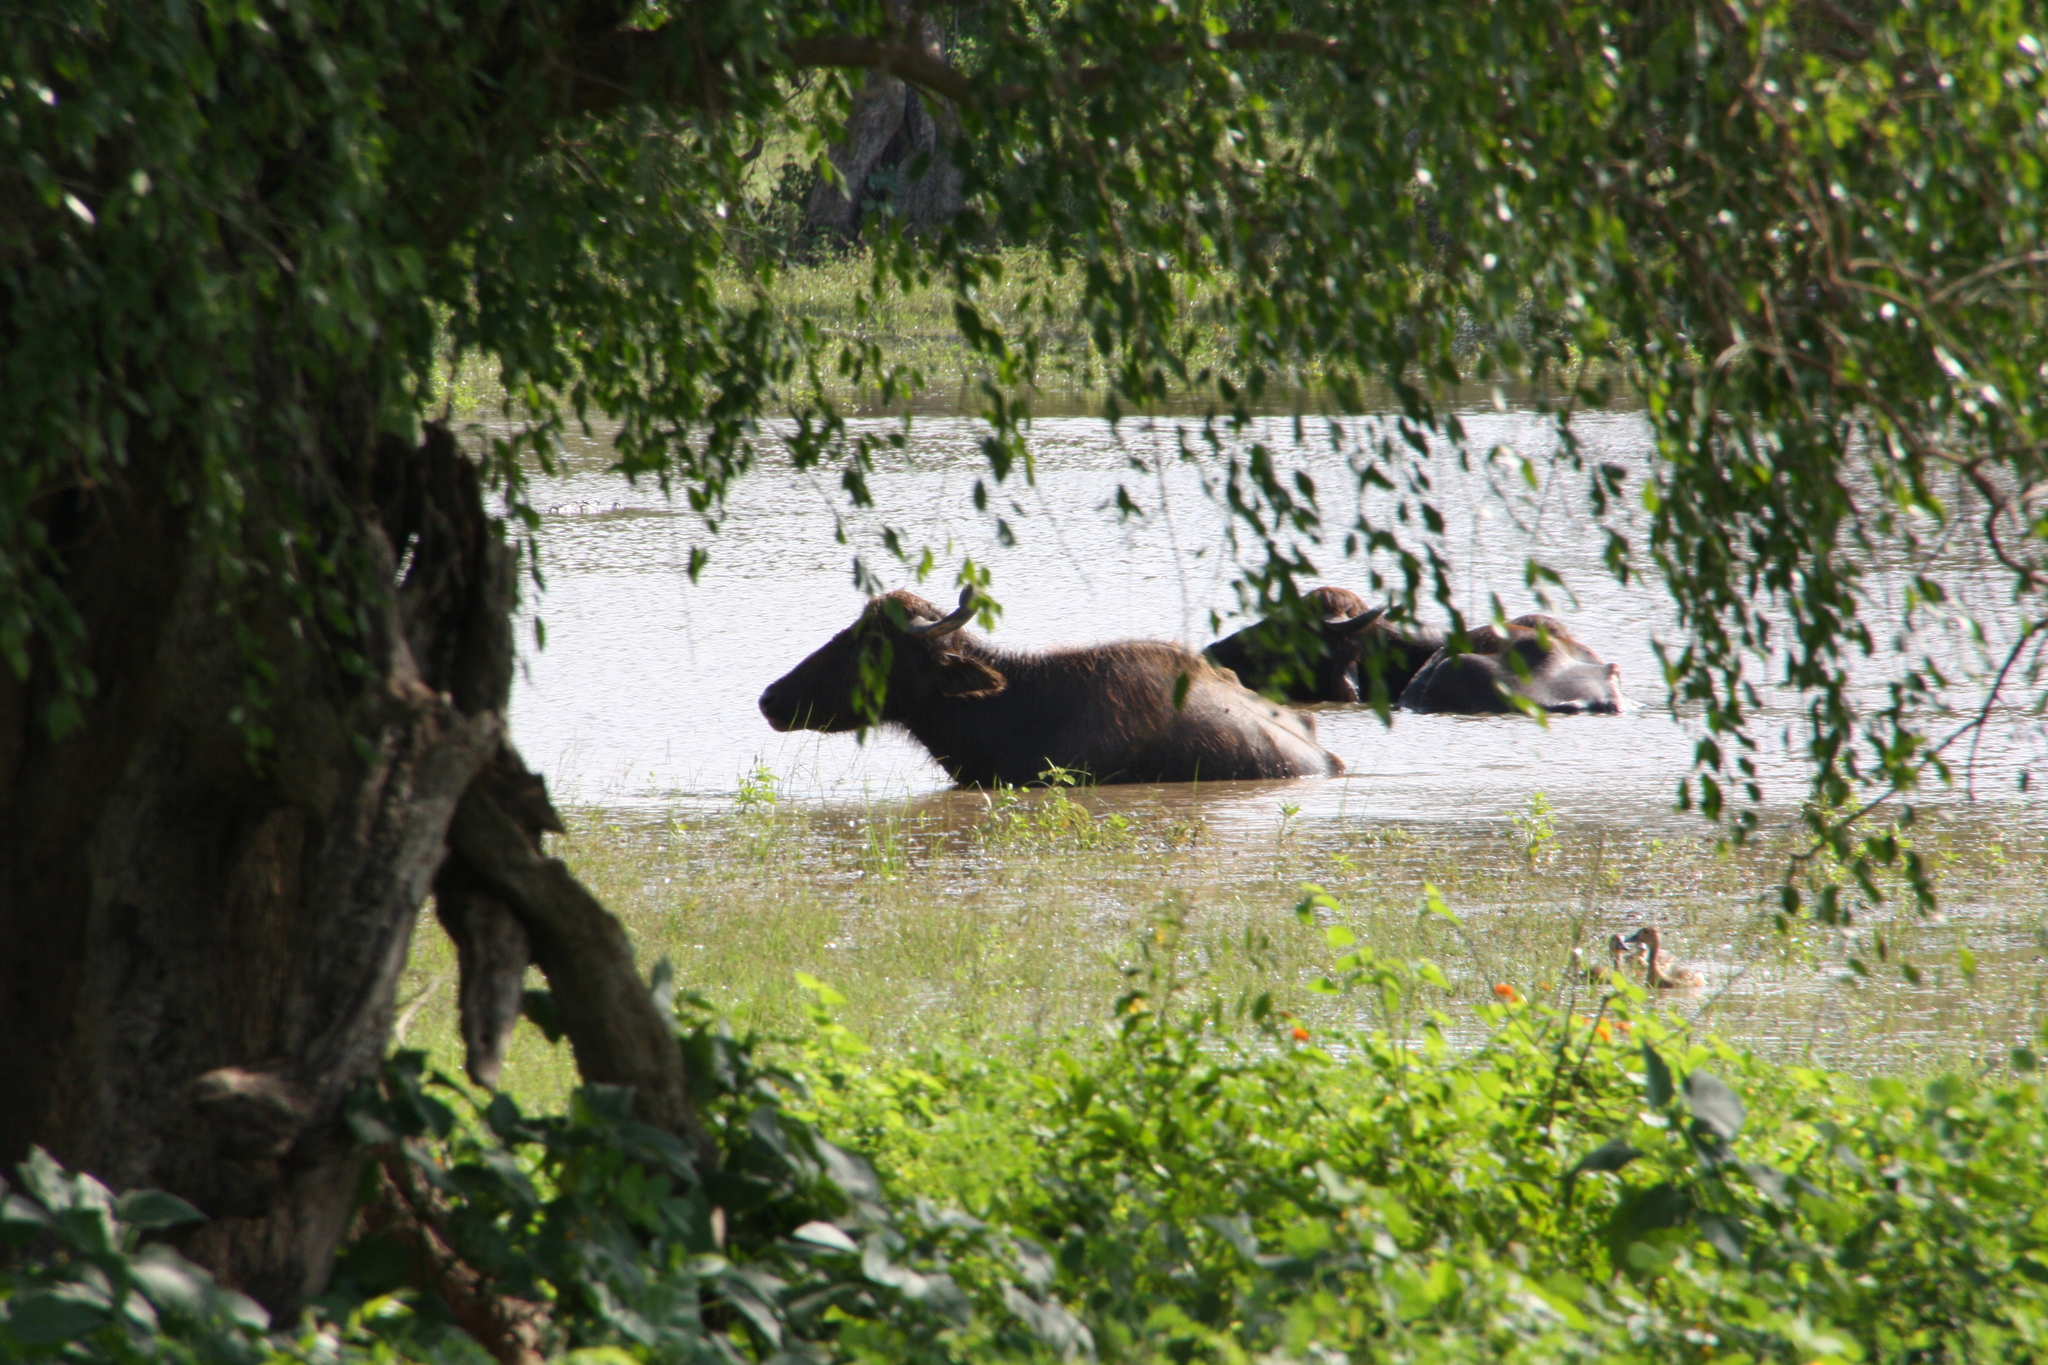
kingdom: Animalia
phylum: Chordata
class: Mammalia
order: Artiodactyla
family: Bovidae
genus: Bubalus
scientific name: Bubalus bubalis
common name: Water buffalo
